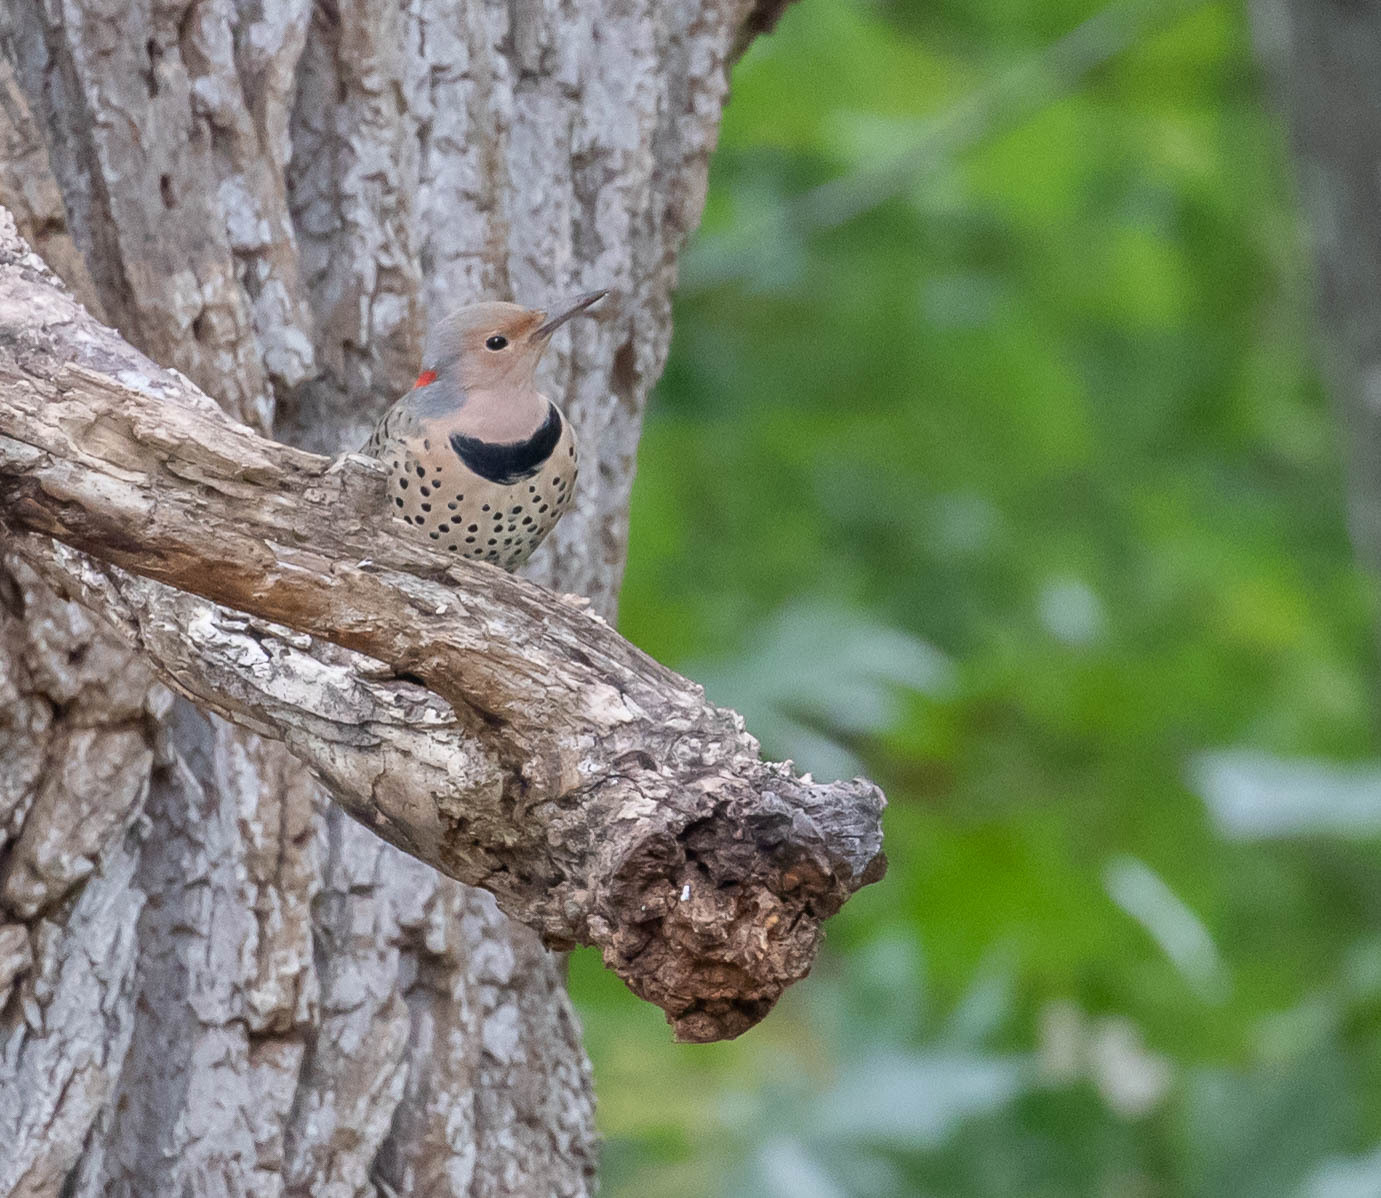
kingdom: Animalia
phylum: Chordata
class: Aves
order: Piciformes
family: Picidae
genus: Colaptes
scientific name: Colaptes auratus
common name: Northern flicker
